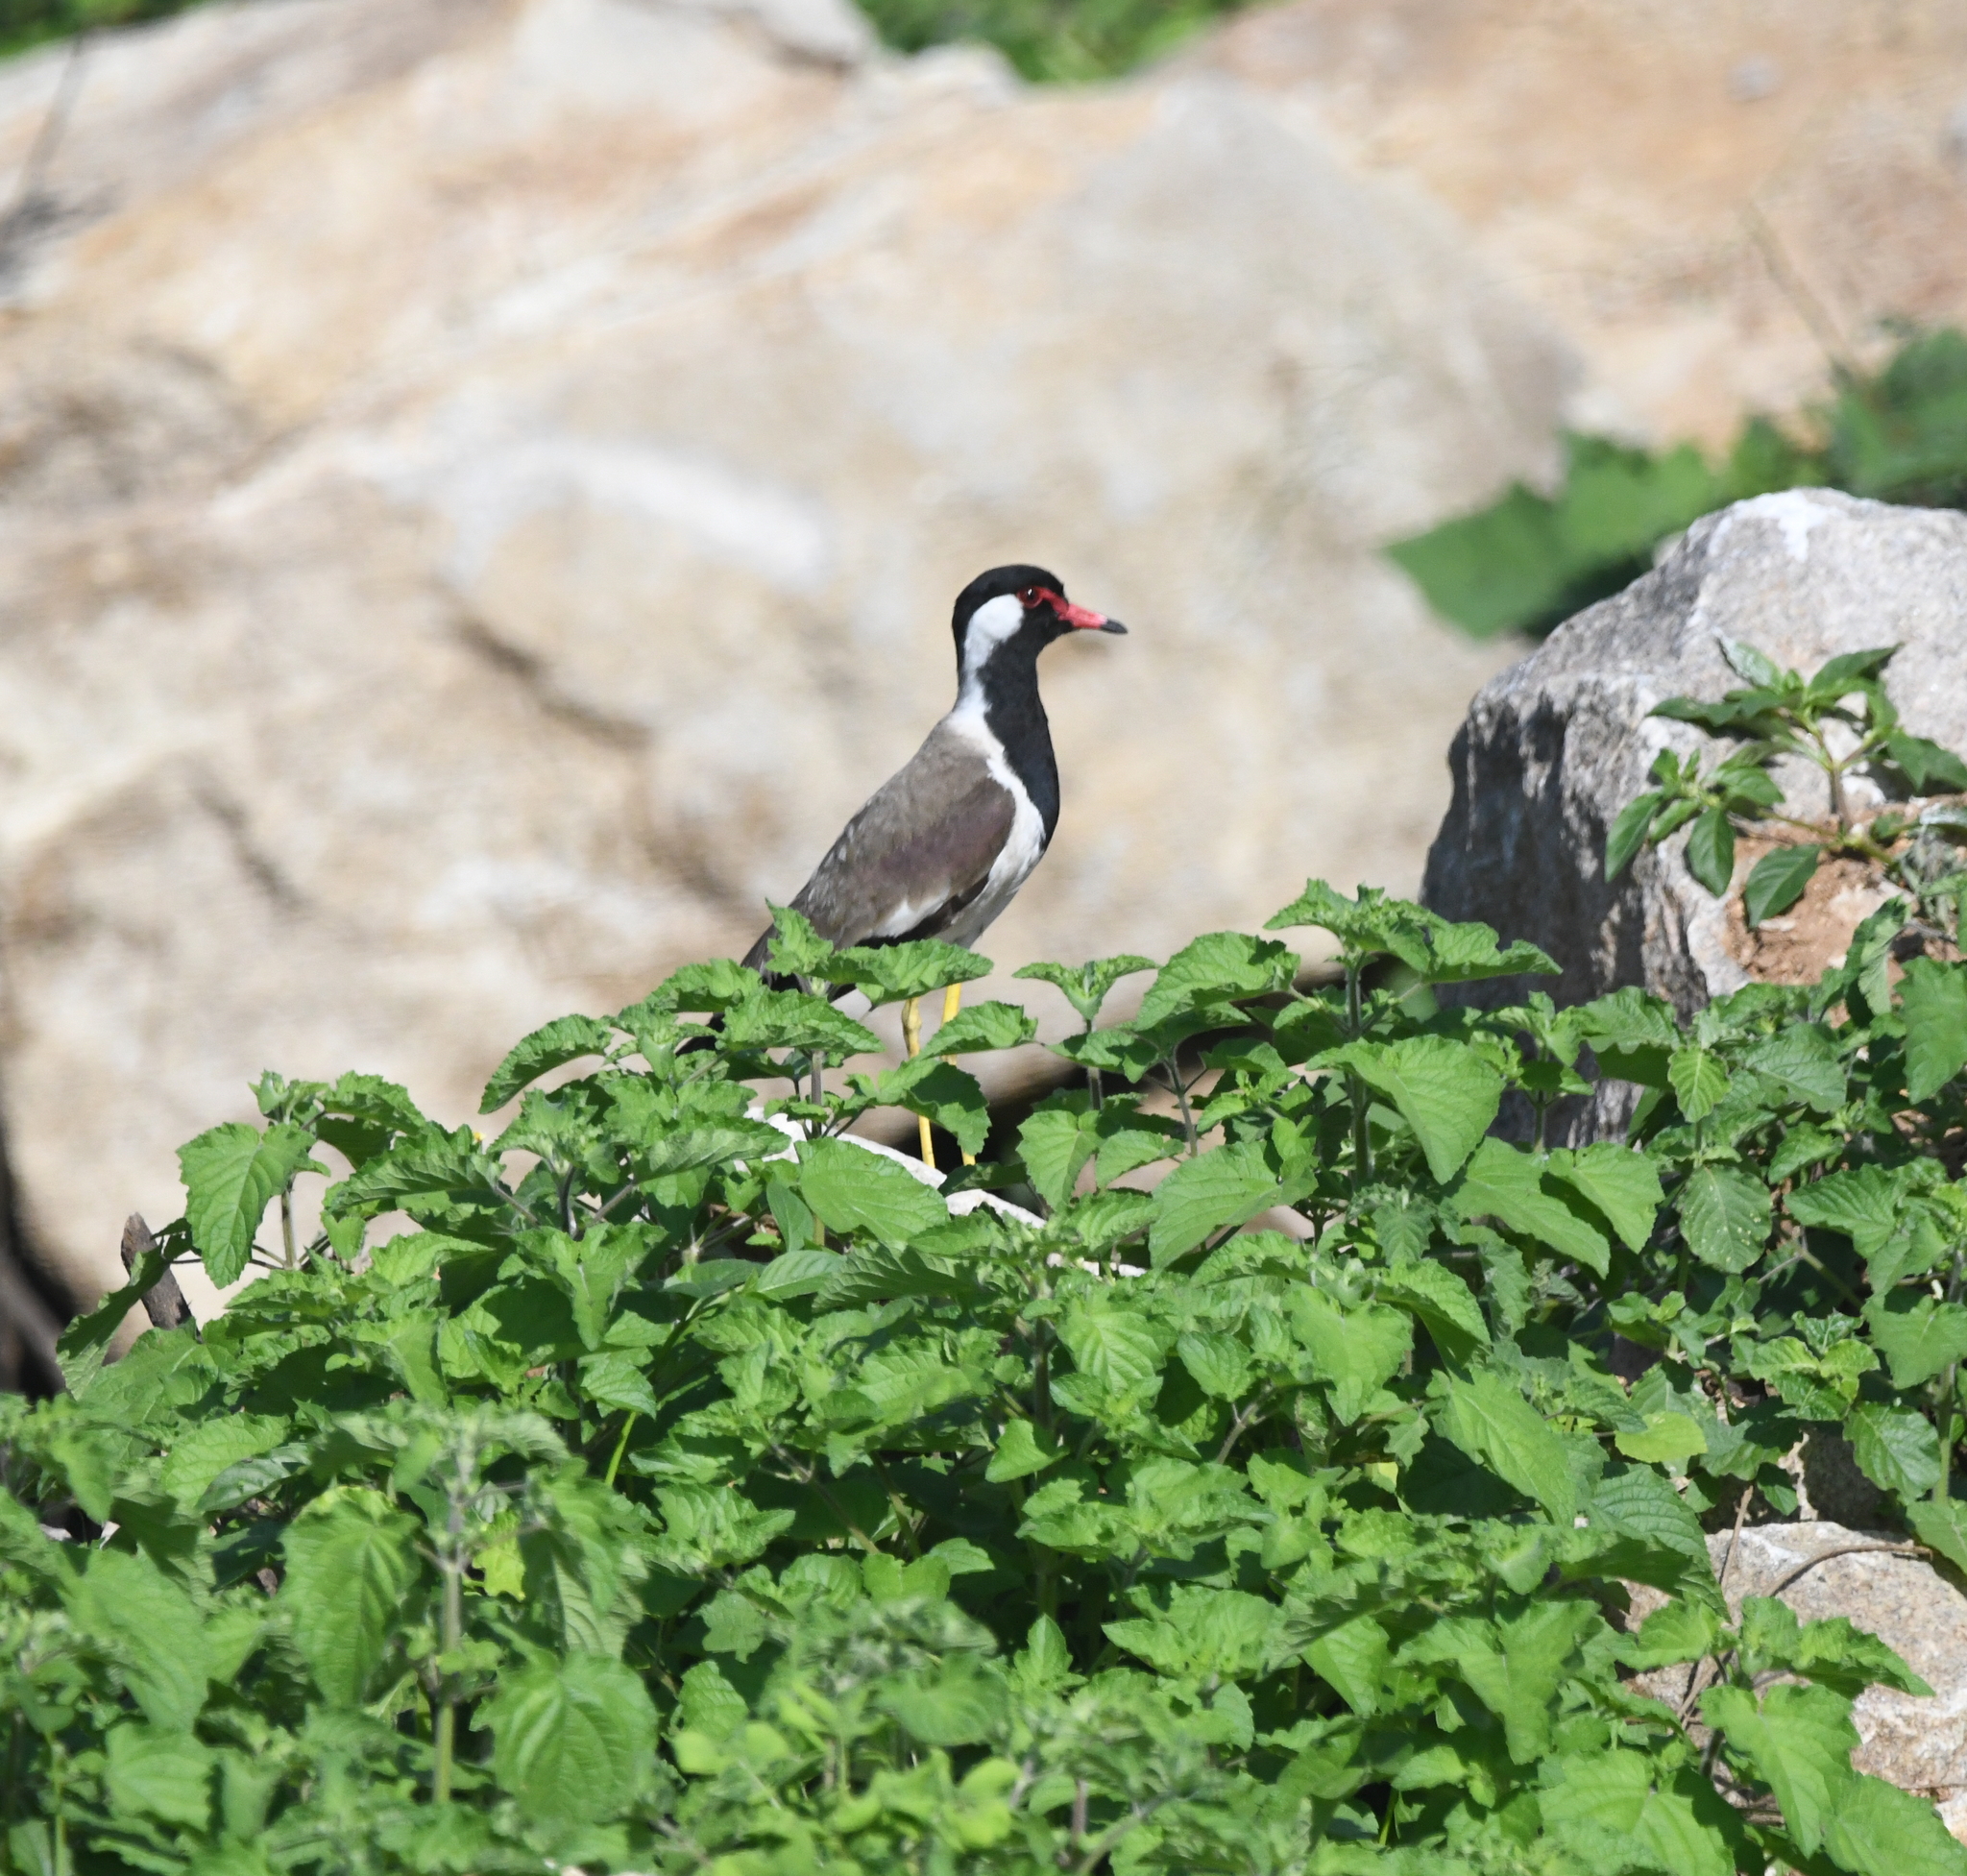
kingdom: Animalia
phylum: Chordata
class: Aves
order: Charadriiformes
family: Charadriidae
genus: Vanellus
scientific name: Vanellus indicus
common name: Red-wattled lapwing
